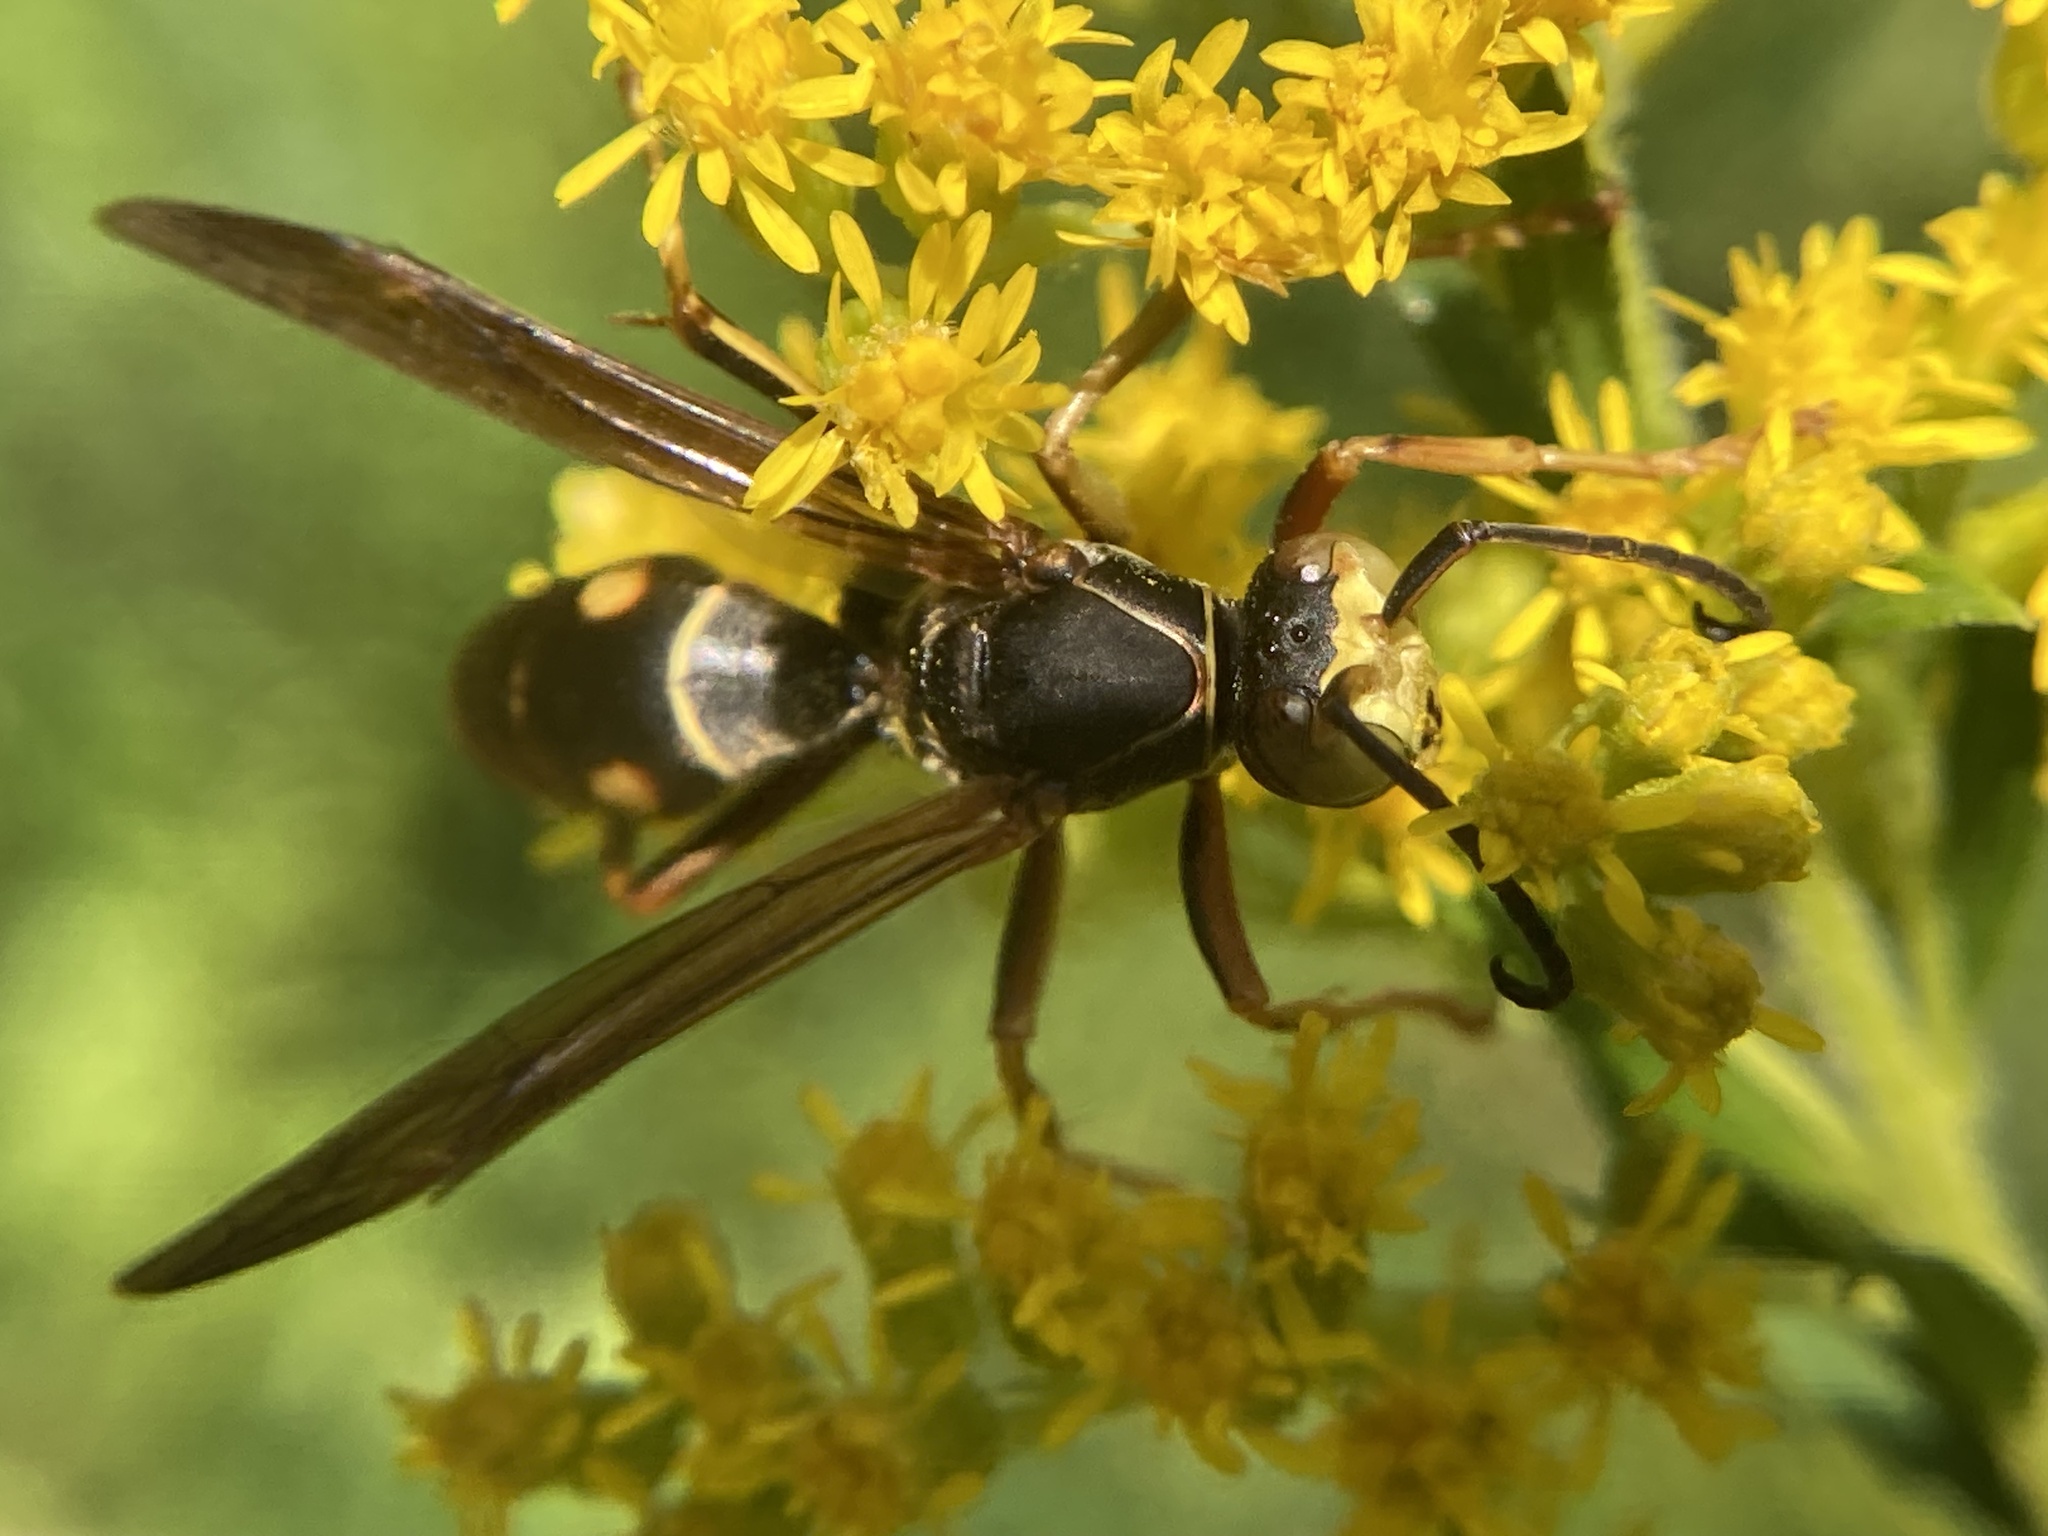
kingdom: Animalia
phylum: Arthropoda
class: Insecta
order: Hymenoptera
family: Eumenidae
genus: Polistes
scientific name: Polistes fuscatus
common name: Dark paper wasp
